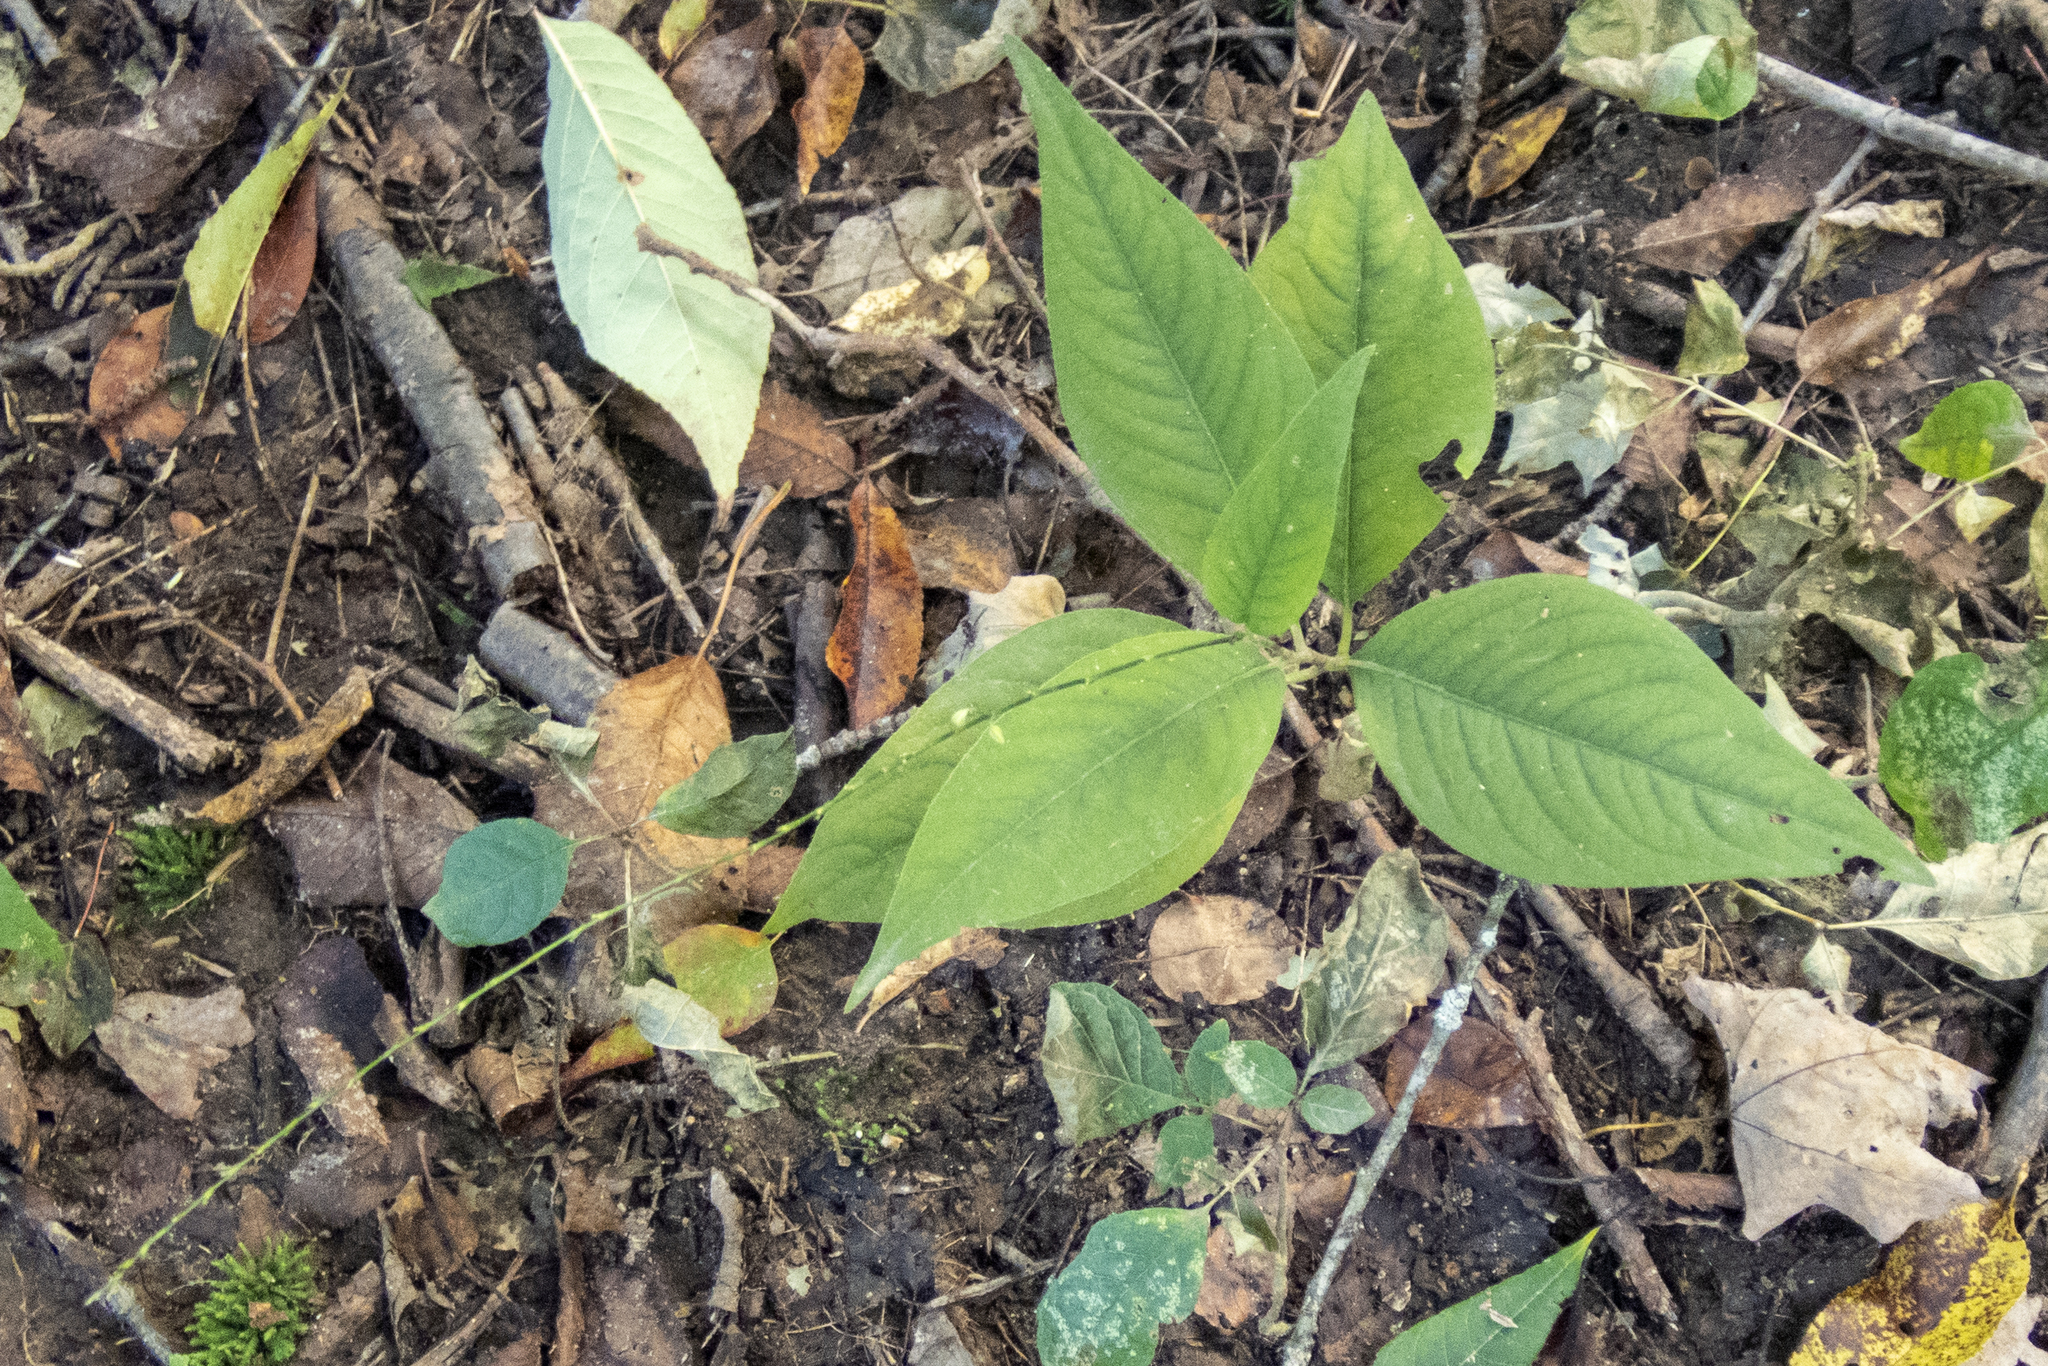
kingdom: Plantae
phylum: Tracheophyta
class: Magnoliopsida
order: Caryophyllales
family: Polygonaceae
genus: Persicaria
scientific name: Persicaria virginiana
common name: Jumpseed
